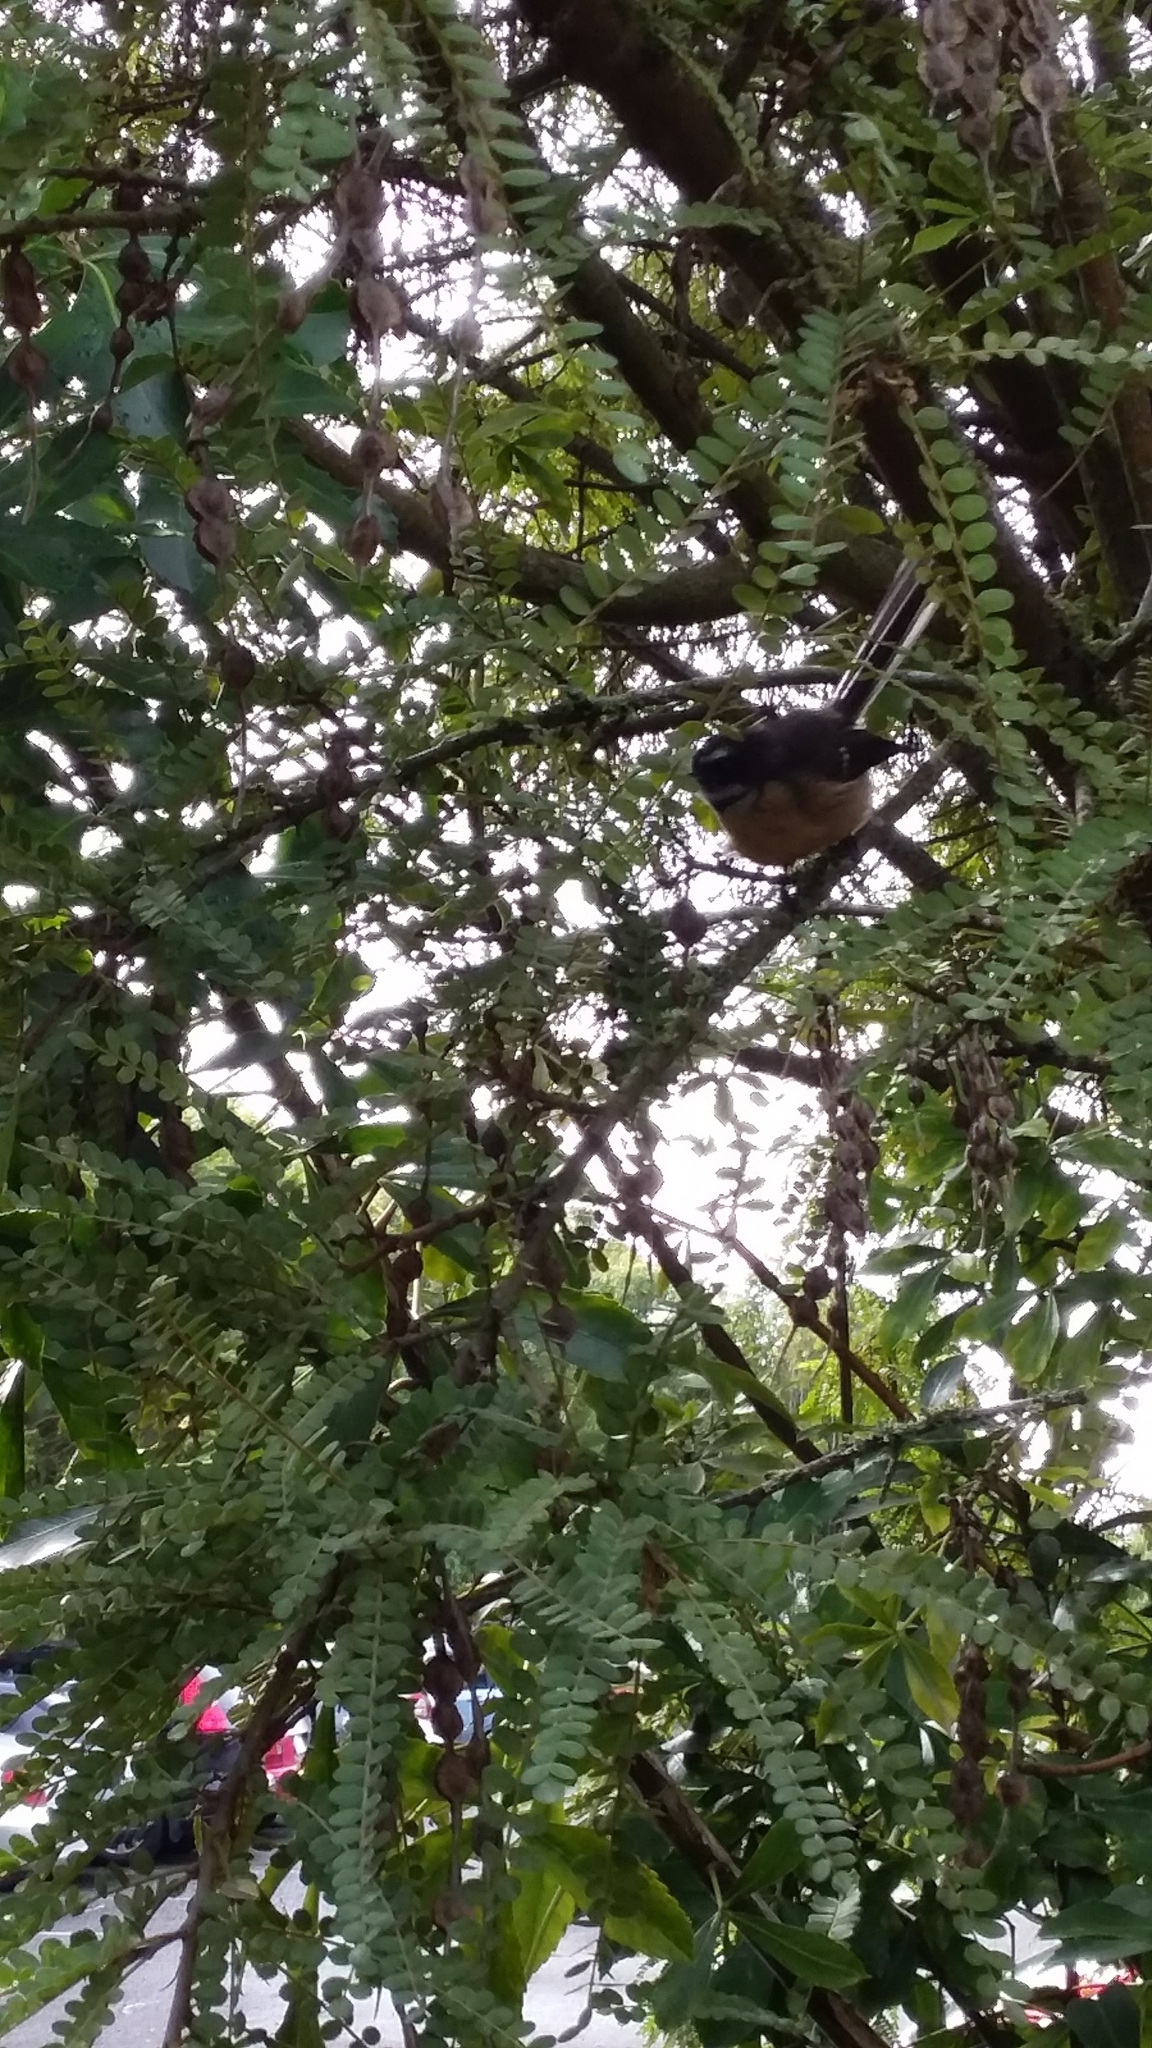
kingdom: Animalia
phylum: Chordata
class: Aves
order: Passeriformes
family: Rhipiduridae
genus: Rhipidura
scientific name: Rhipidura fuliginosa
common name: New zealand fantail
